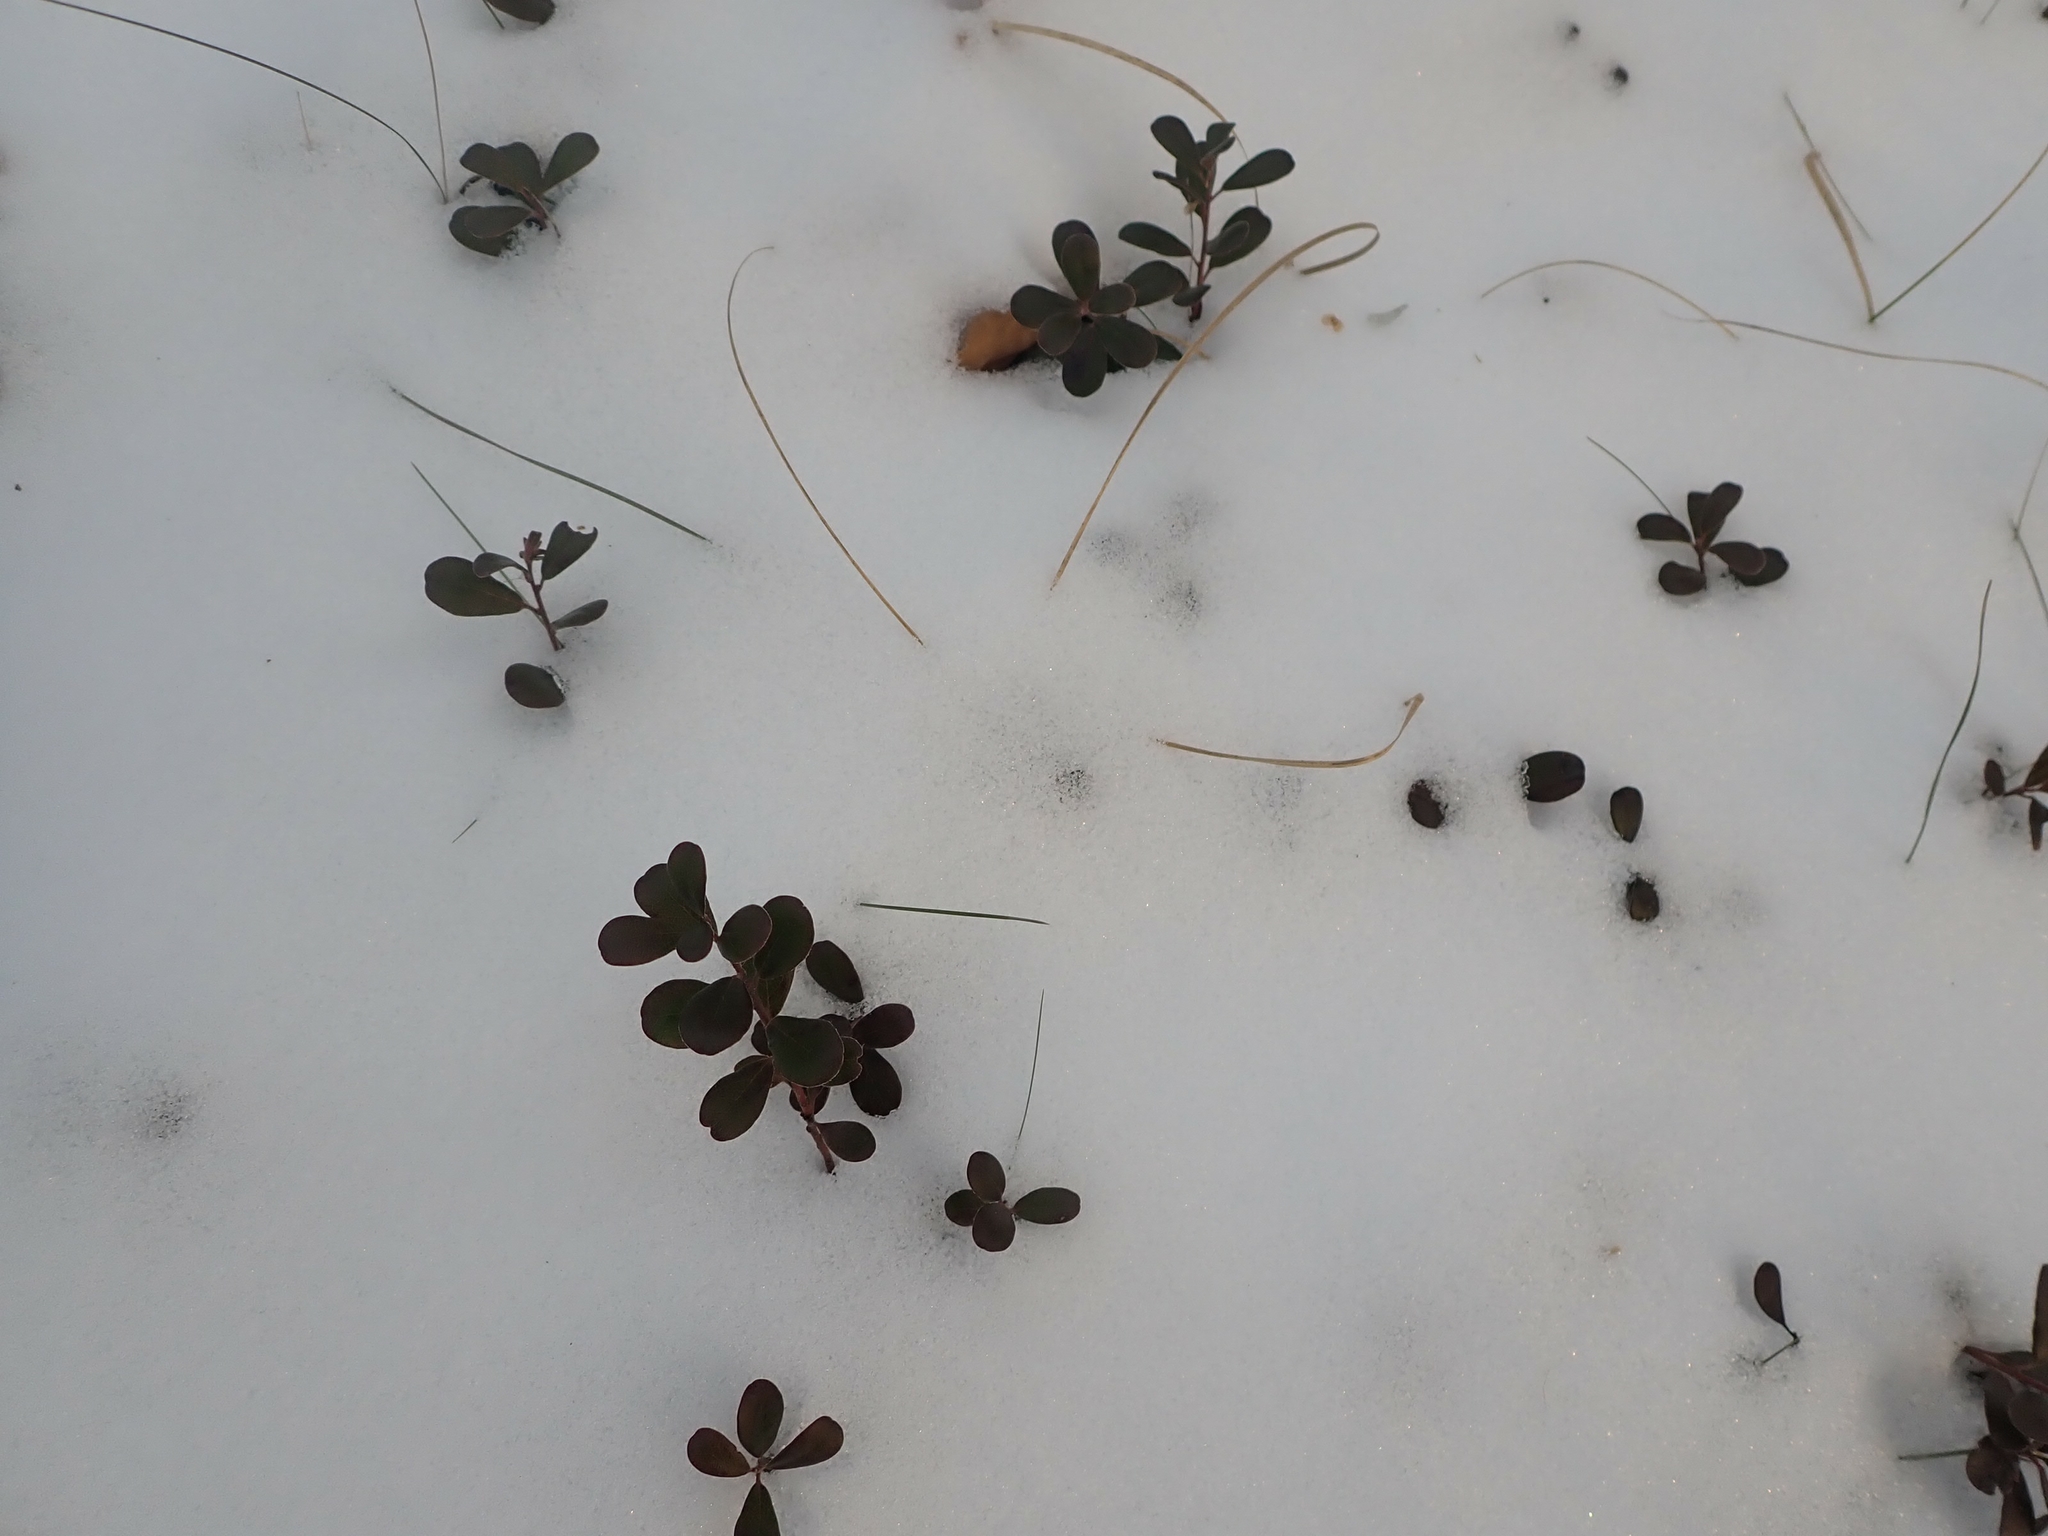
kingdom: Plantae
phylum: Tracheophyta
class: Magnoliopsida
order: Ericales
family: Ericaceae
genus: Arctostaphylos
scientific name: Arctostaphylos uva-ursi
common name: Bearberry
